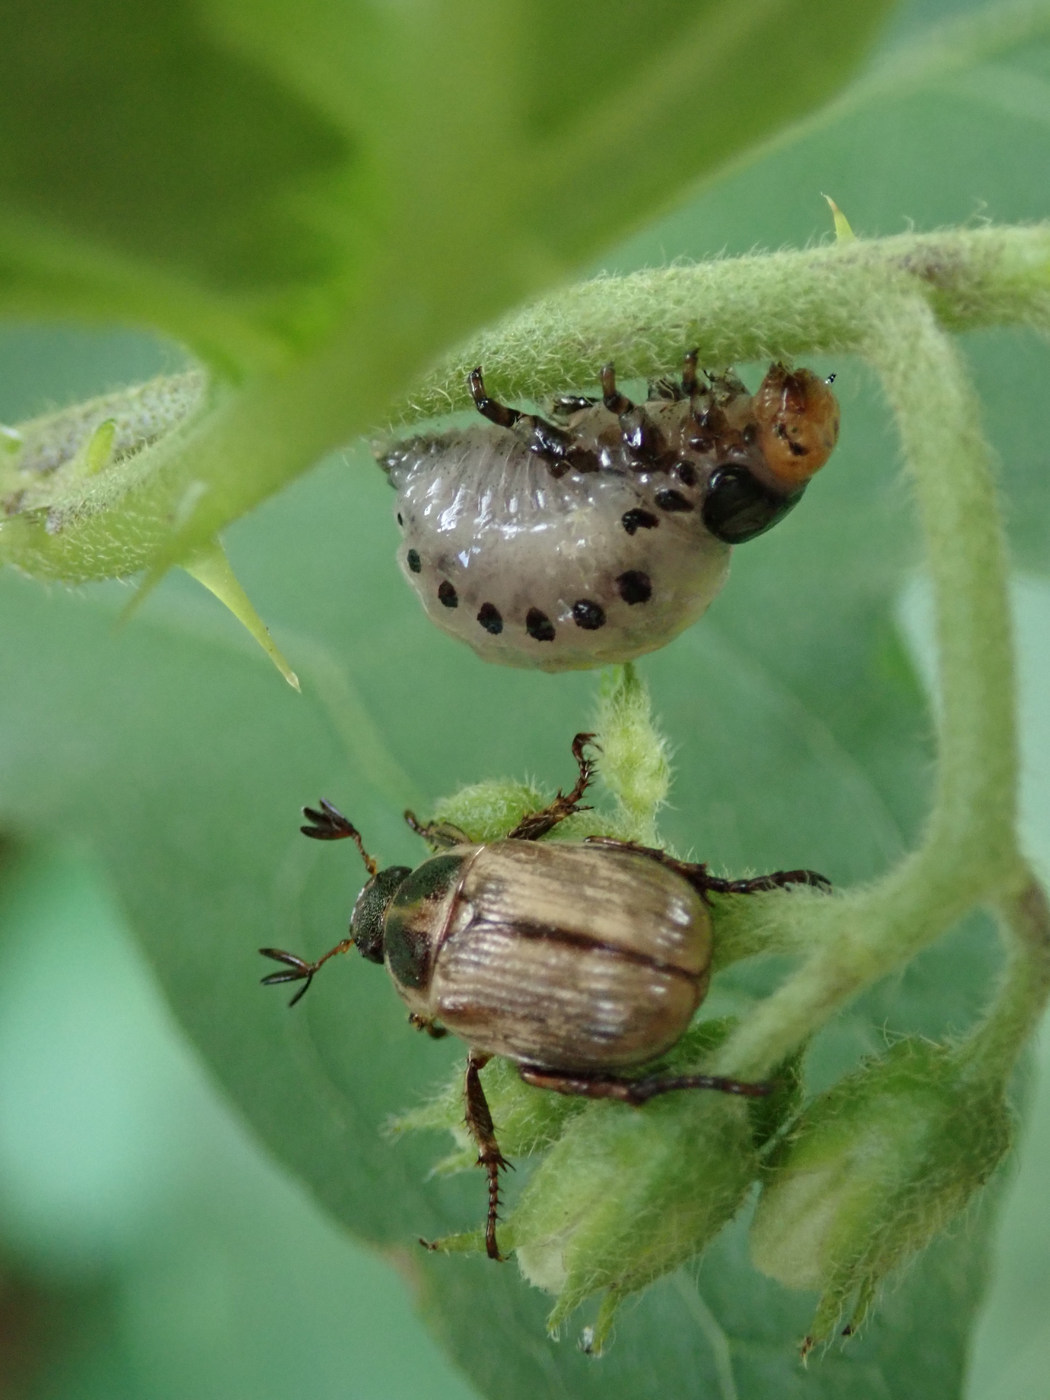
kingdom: Animalia
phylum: Arthropoda
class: Insecta
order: Coleoptera
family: Chrysomelidae
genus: Leptinotarsa
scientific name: Leptinotarsa juncta
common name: False potato beetle
